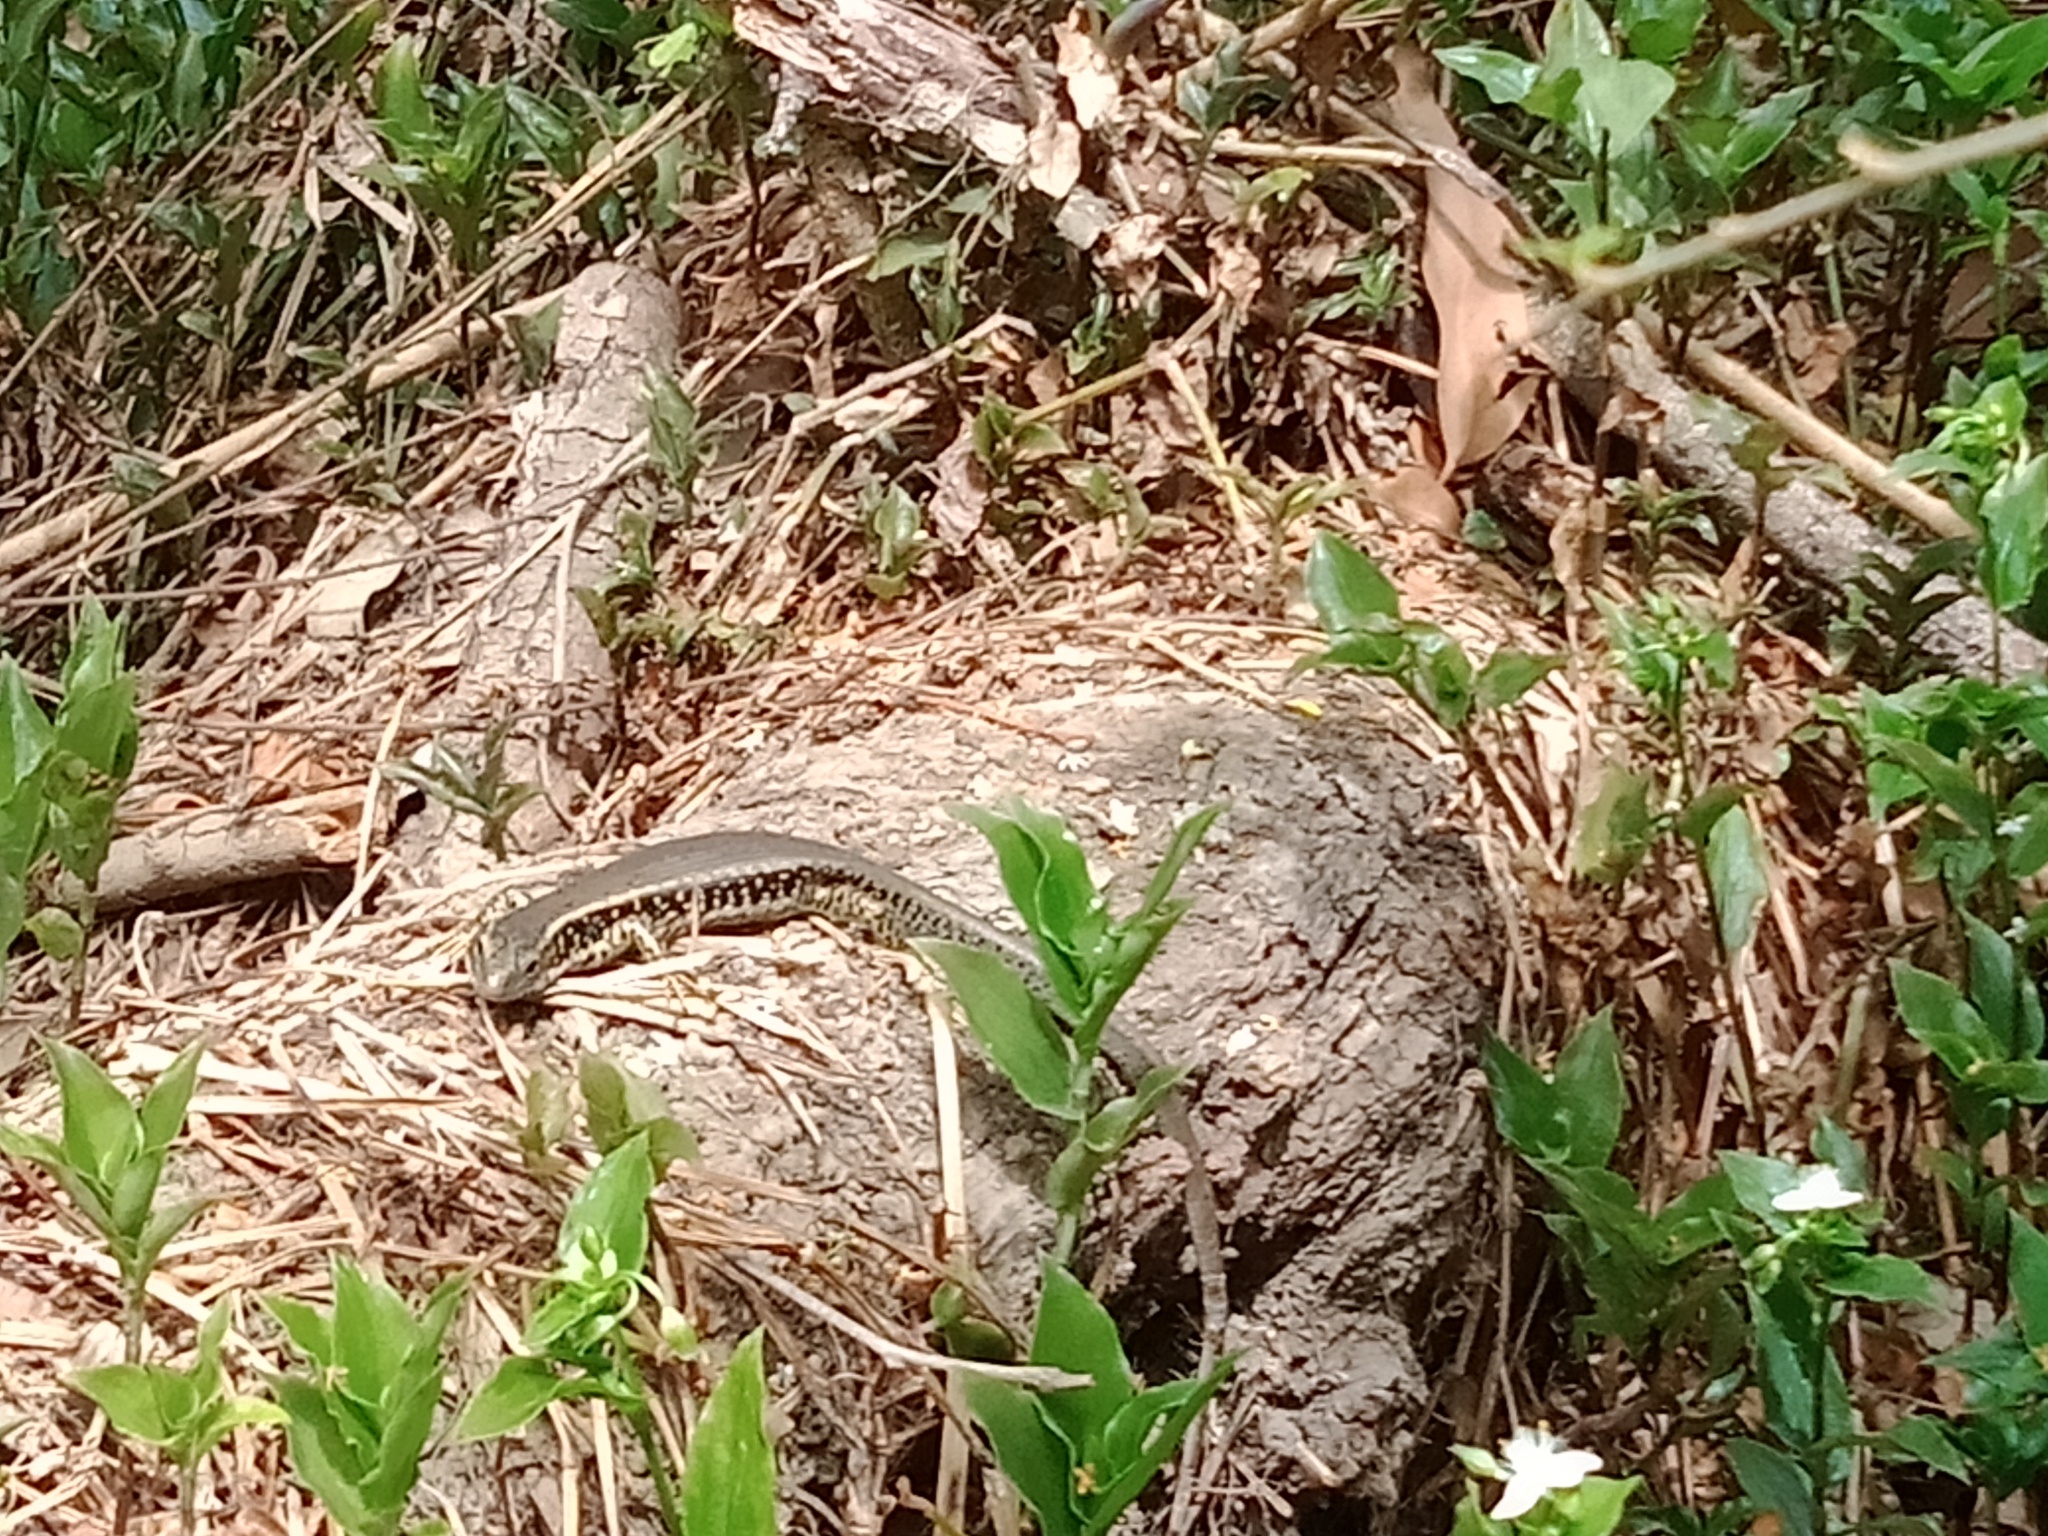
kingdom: Animalia
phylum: Chordata
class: Squamata
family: Scincidae
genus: Eulamprus
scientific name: Eulamprus quoyii
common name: Eastern water skink
